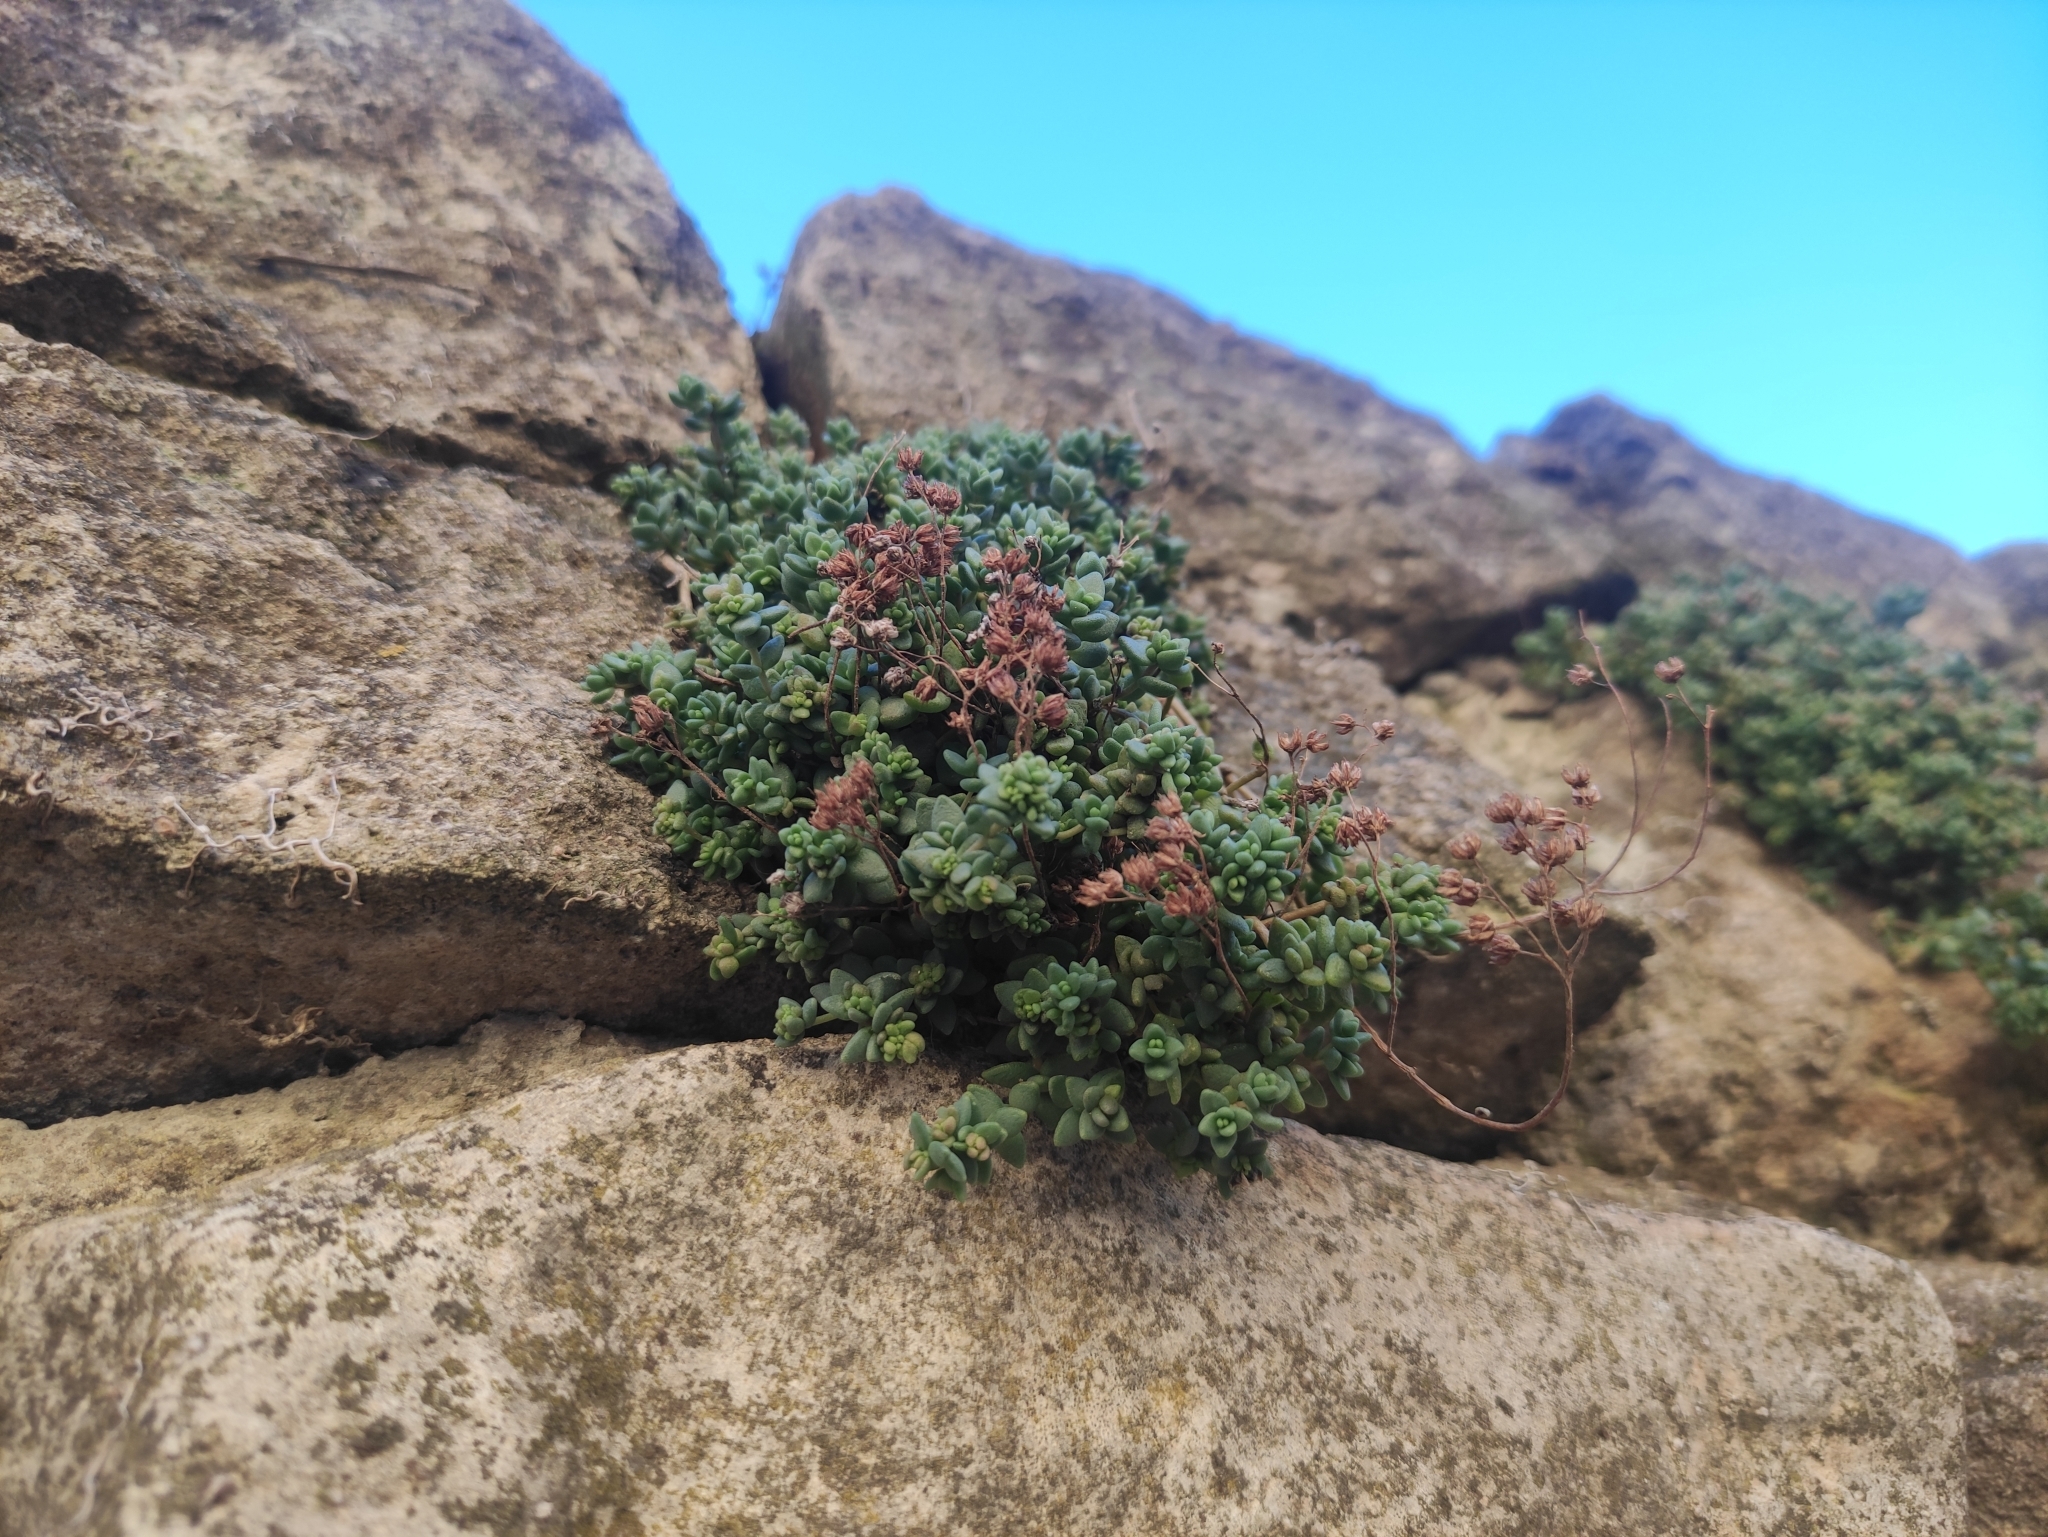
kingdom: Plantae
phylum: Tracheophyta
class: Magnoliopsida
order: Saxifragales
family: Crassulaceae
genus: Sedum
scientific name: Sedum dasyphyllum
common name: Thick-leaf stonecrop
